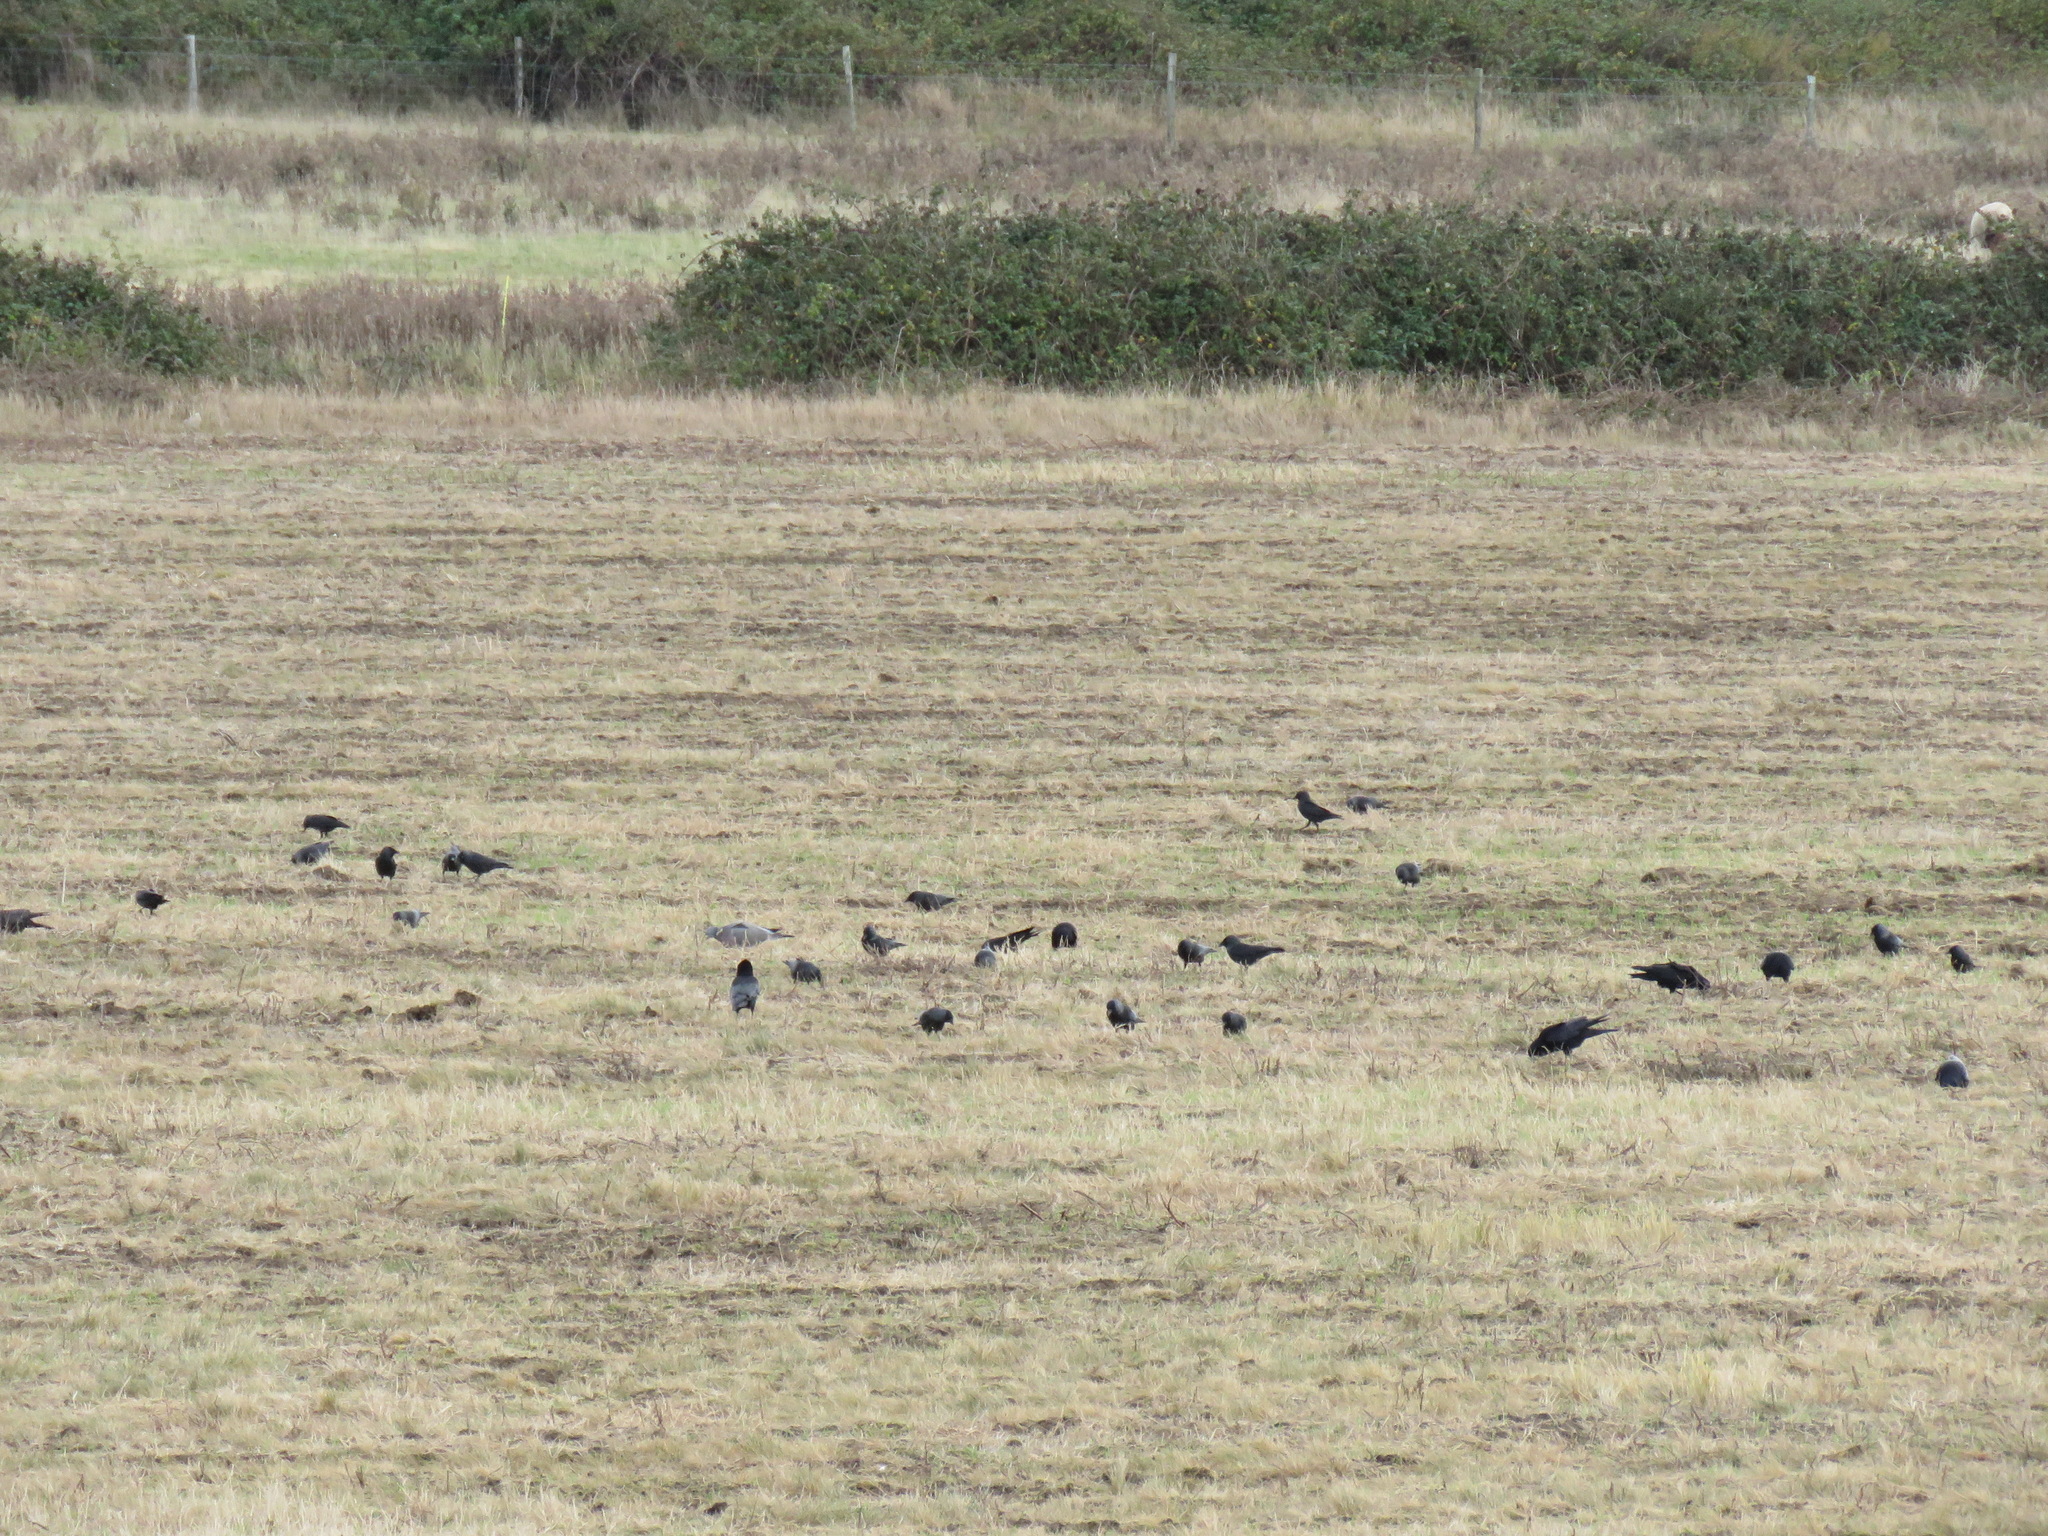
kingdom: Animalia
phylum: Chordata
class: Aves
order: Passeriformes
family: Corvidae
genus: Coloeus
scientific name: Coloeus monedula
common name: Western jackdaw
